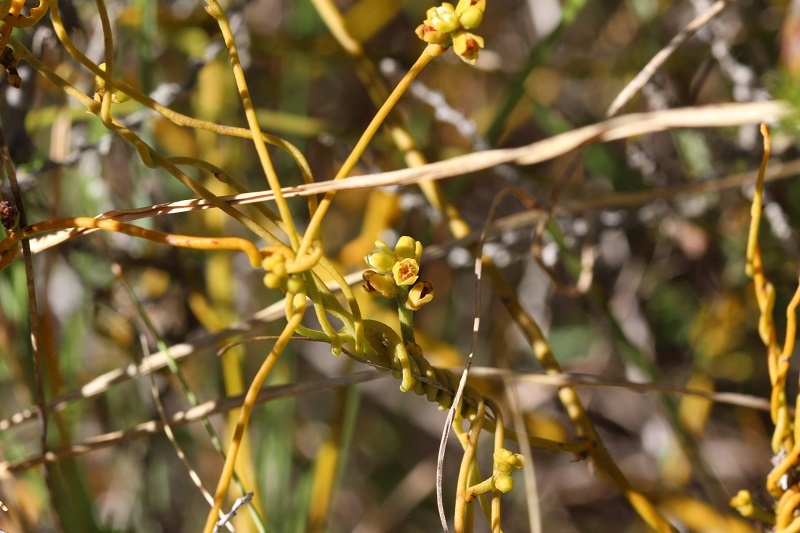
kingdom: Plantae
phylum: Tracheophyta
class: Magnoliopsida
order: Laurales
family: Lauraceae
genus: Cassytha
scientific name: Cassytha ciliolata
